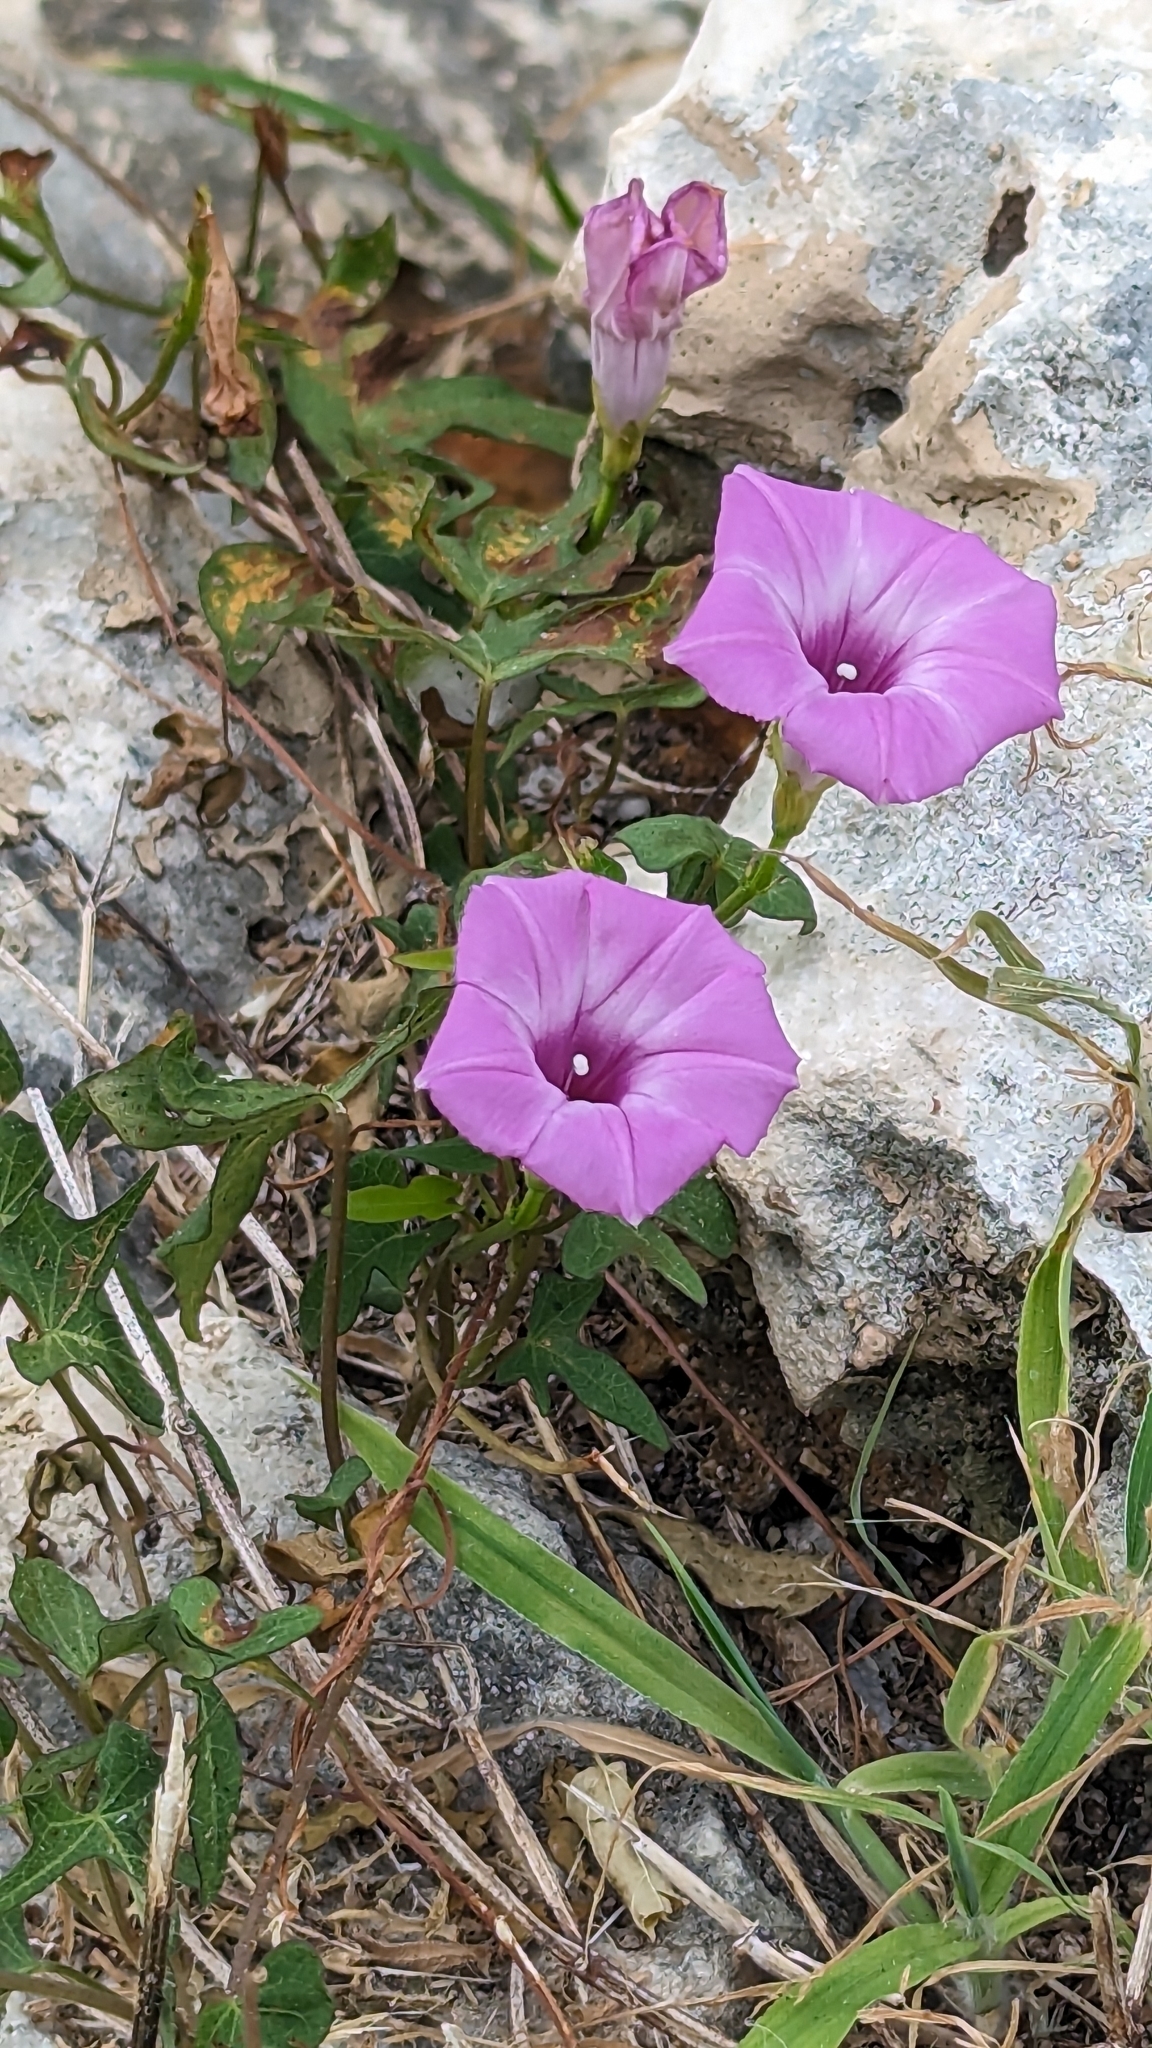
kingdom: Plantae
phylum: Tracheophyta
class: Magnoliopsida
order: Solanales
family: Convolvulaceae
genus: Ipomoea
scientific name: Ipomoea cordatotriloba
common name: Cotton morning glory
